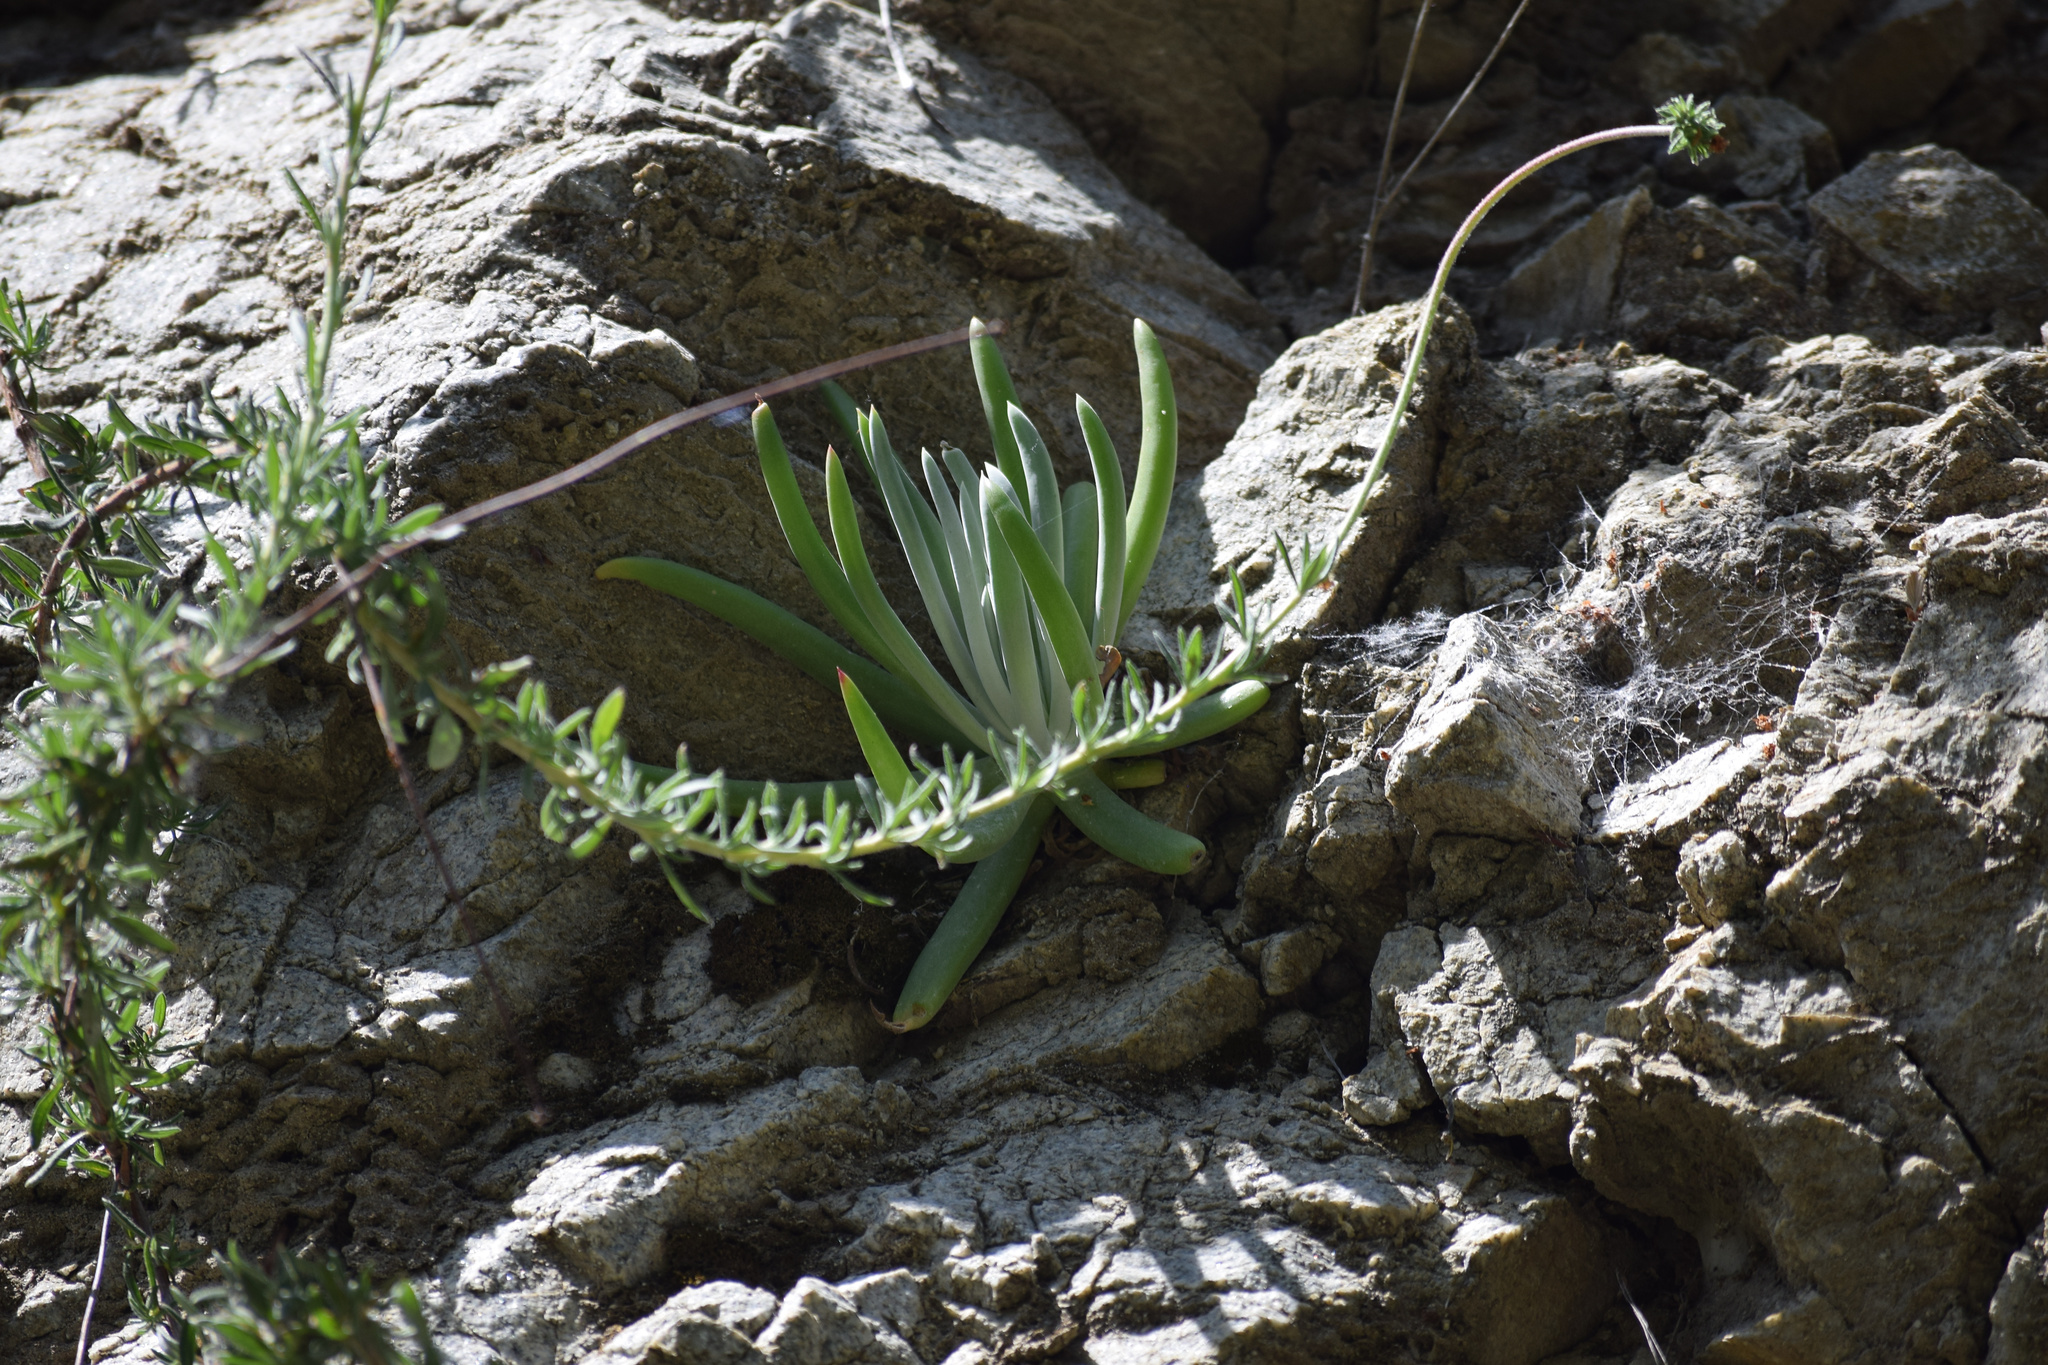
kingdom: Plantae
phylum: Tracheophyta
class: Magnoliopsida
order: Saxifragales
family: Crassulaceae
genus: Dudleya
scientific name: Dudleya densiflora
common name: San gabriel mountains dudleya
